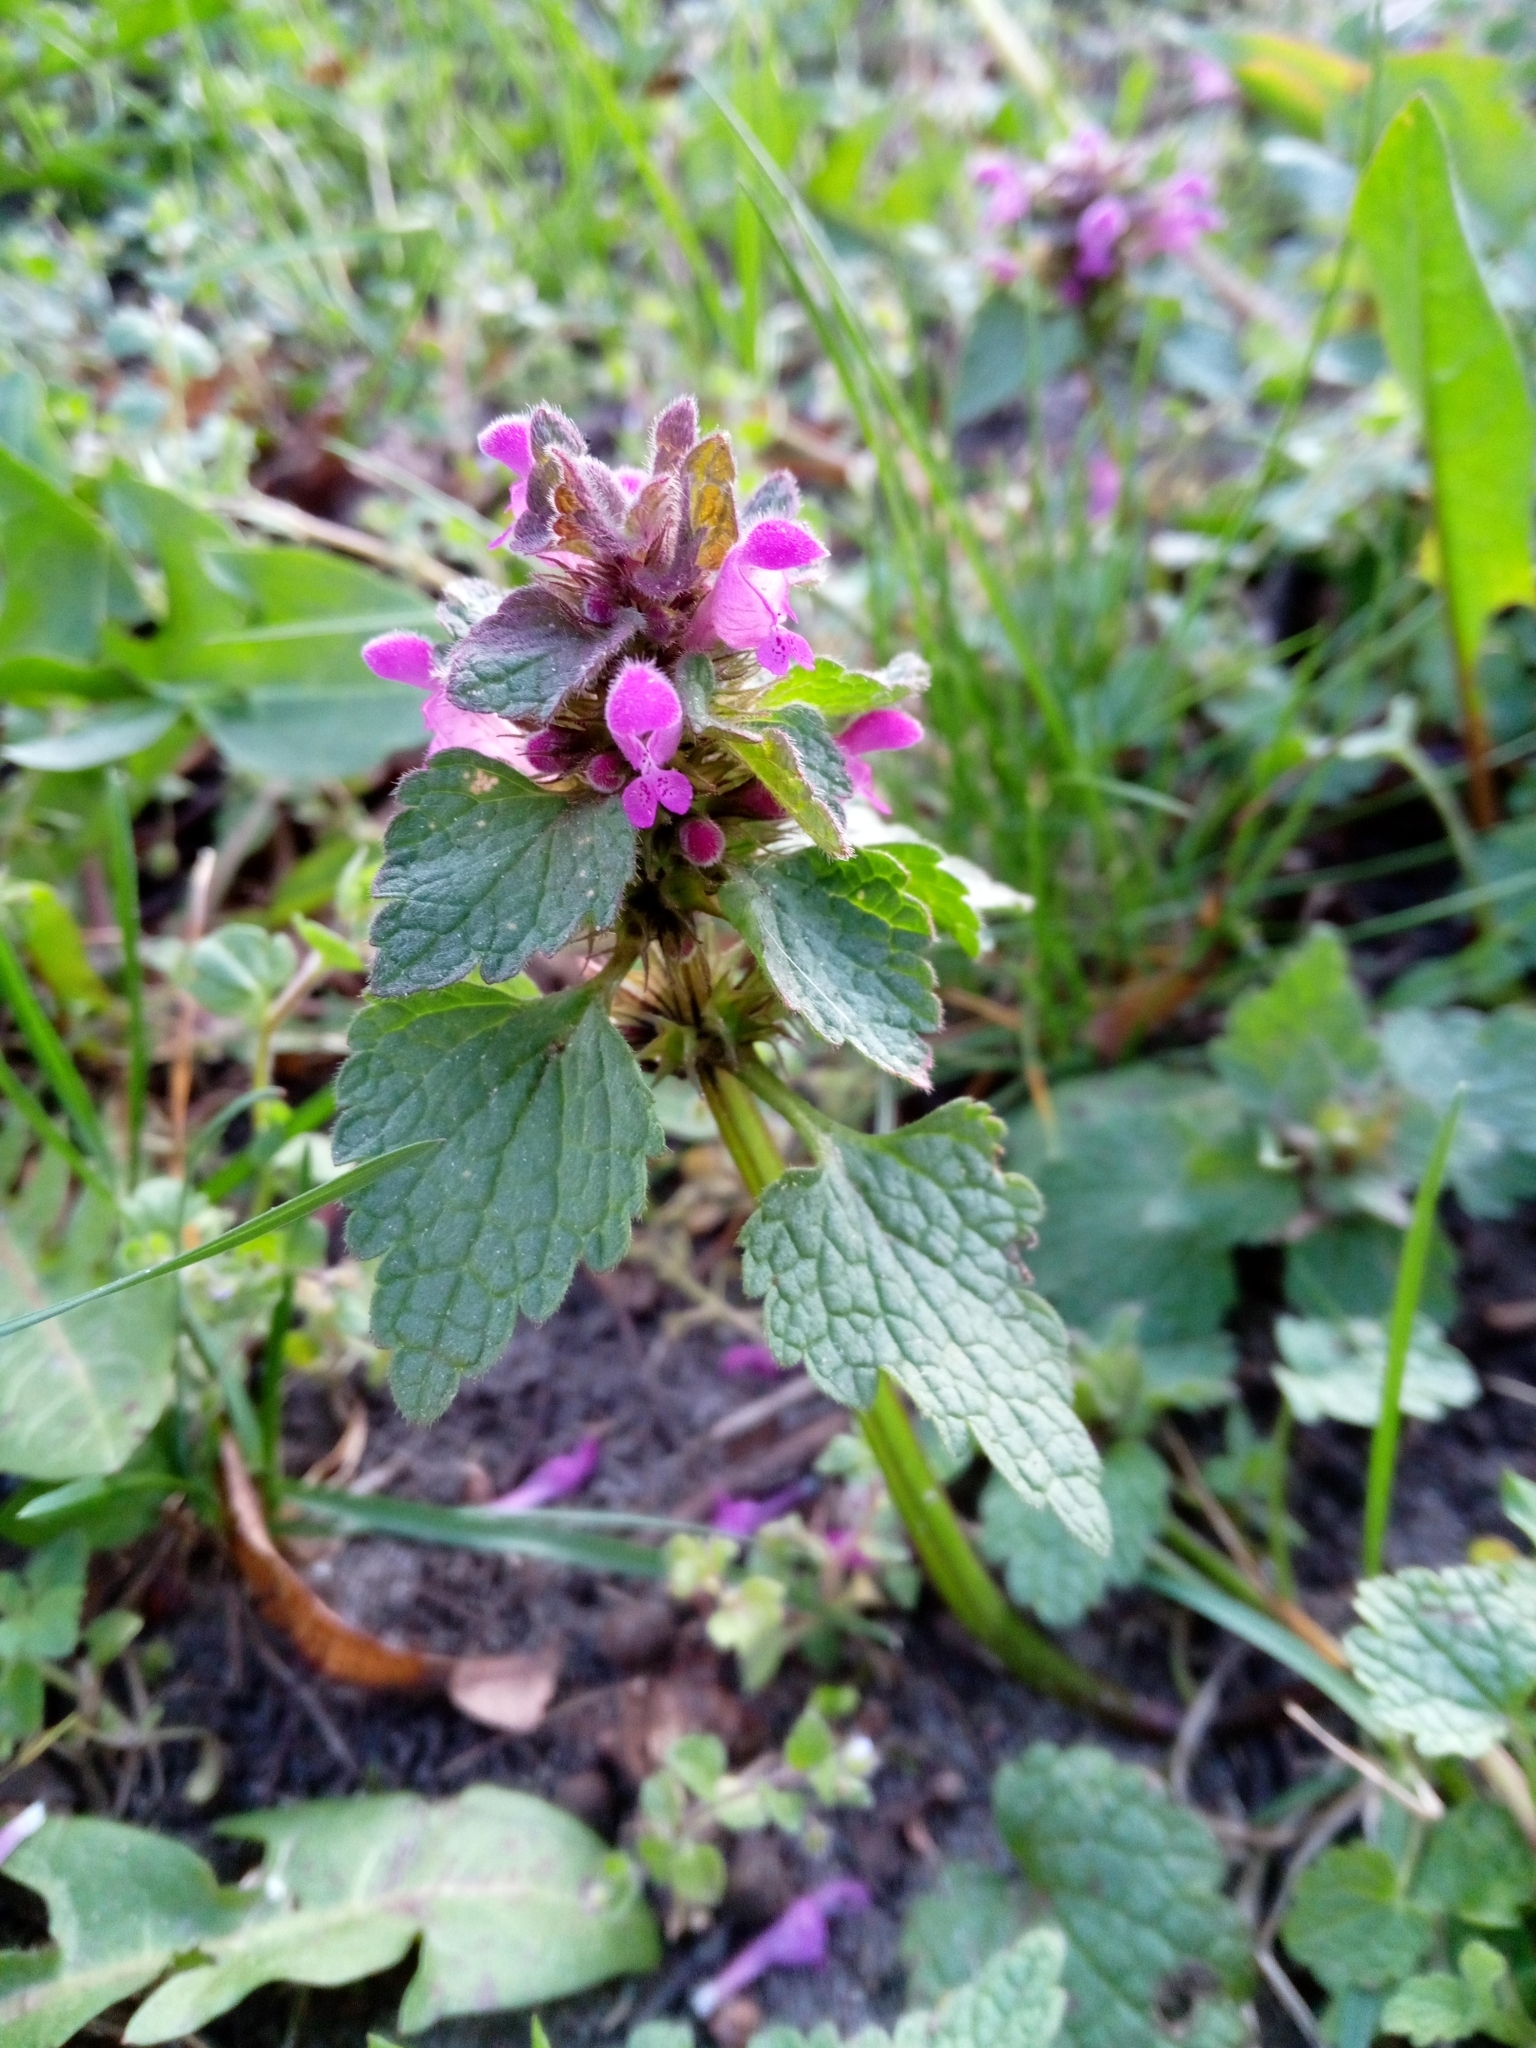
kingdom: Plantae
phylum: Tracheophyta
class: Magnoliopsida
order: Lamiales
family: Lamiaceae
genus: Lamium
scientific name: Lamium purpureum
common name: Red dead-nettle
